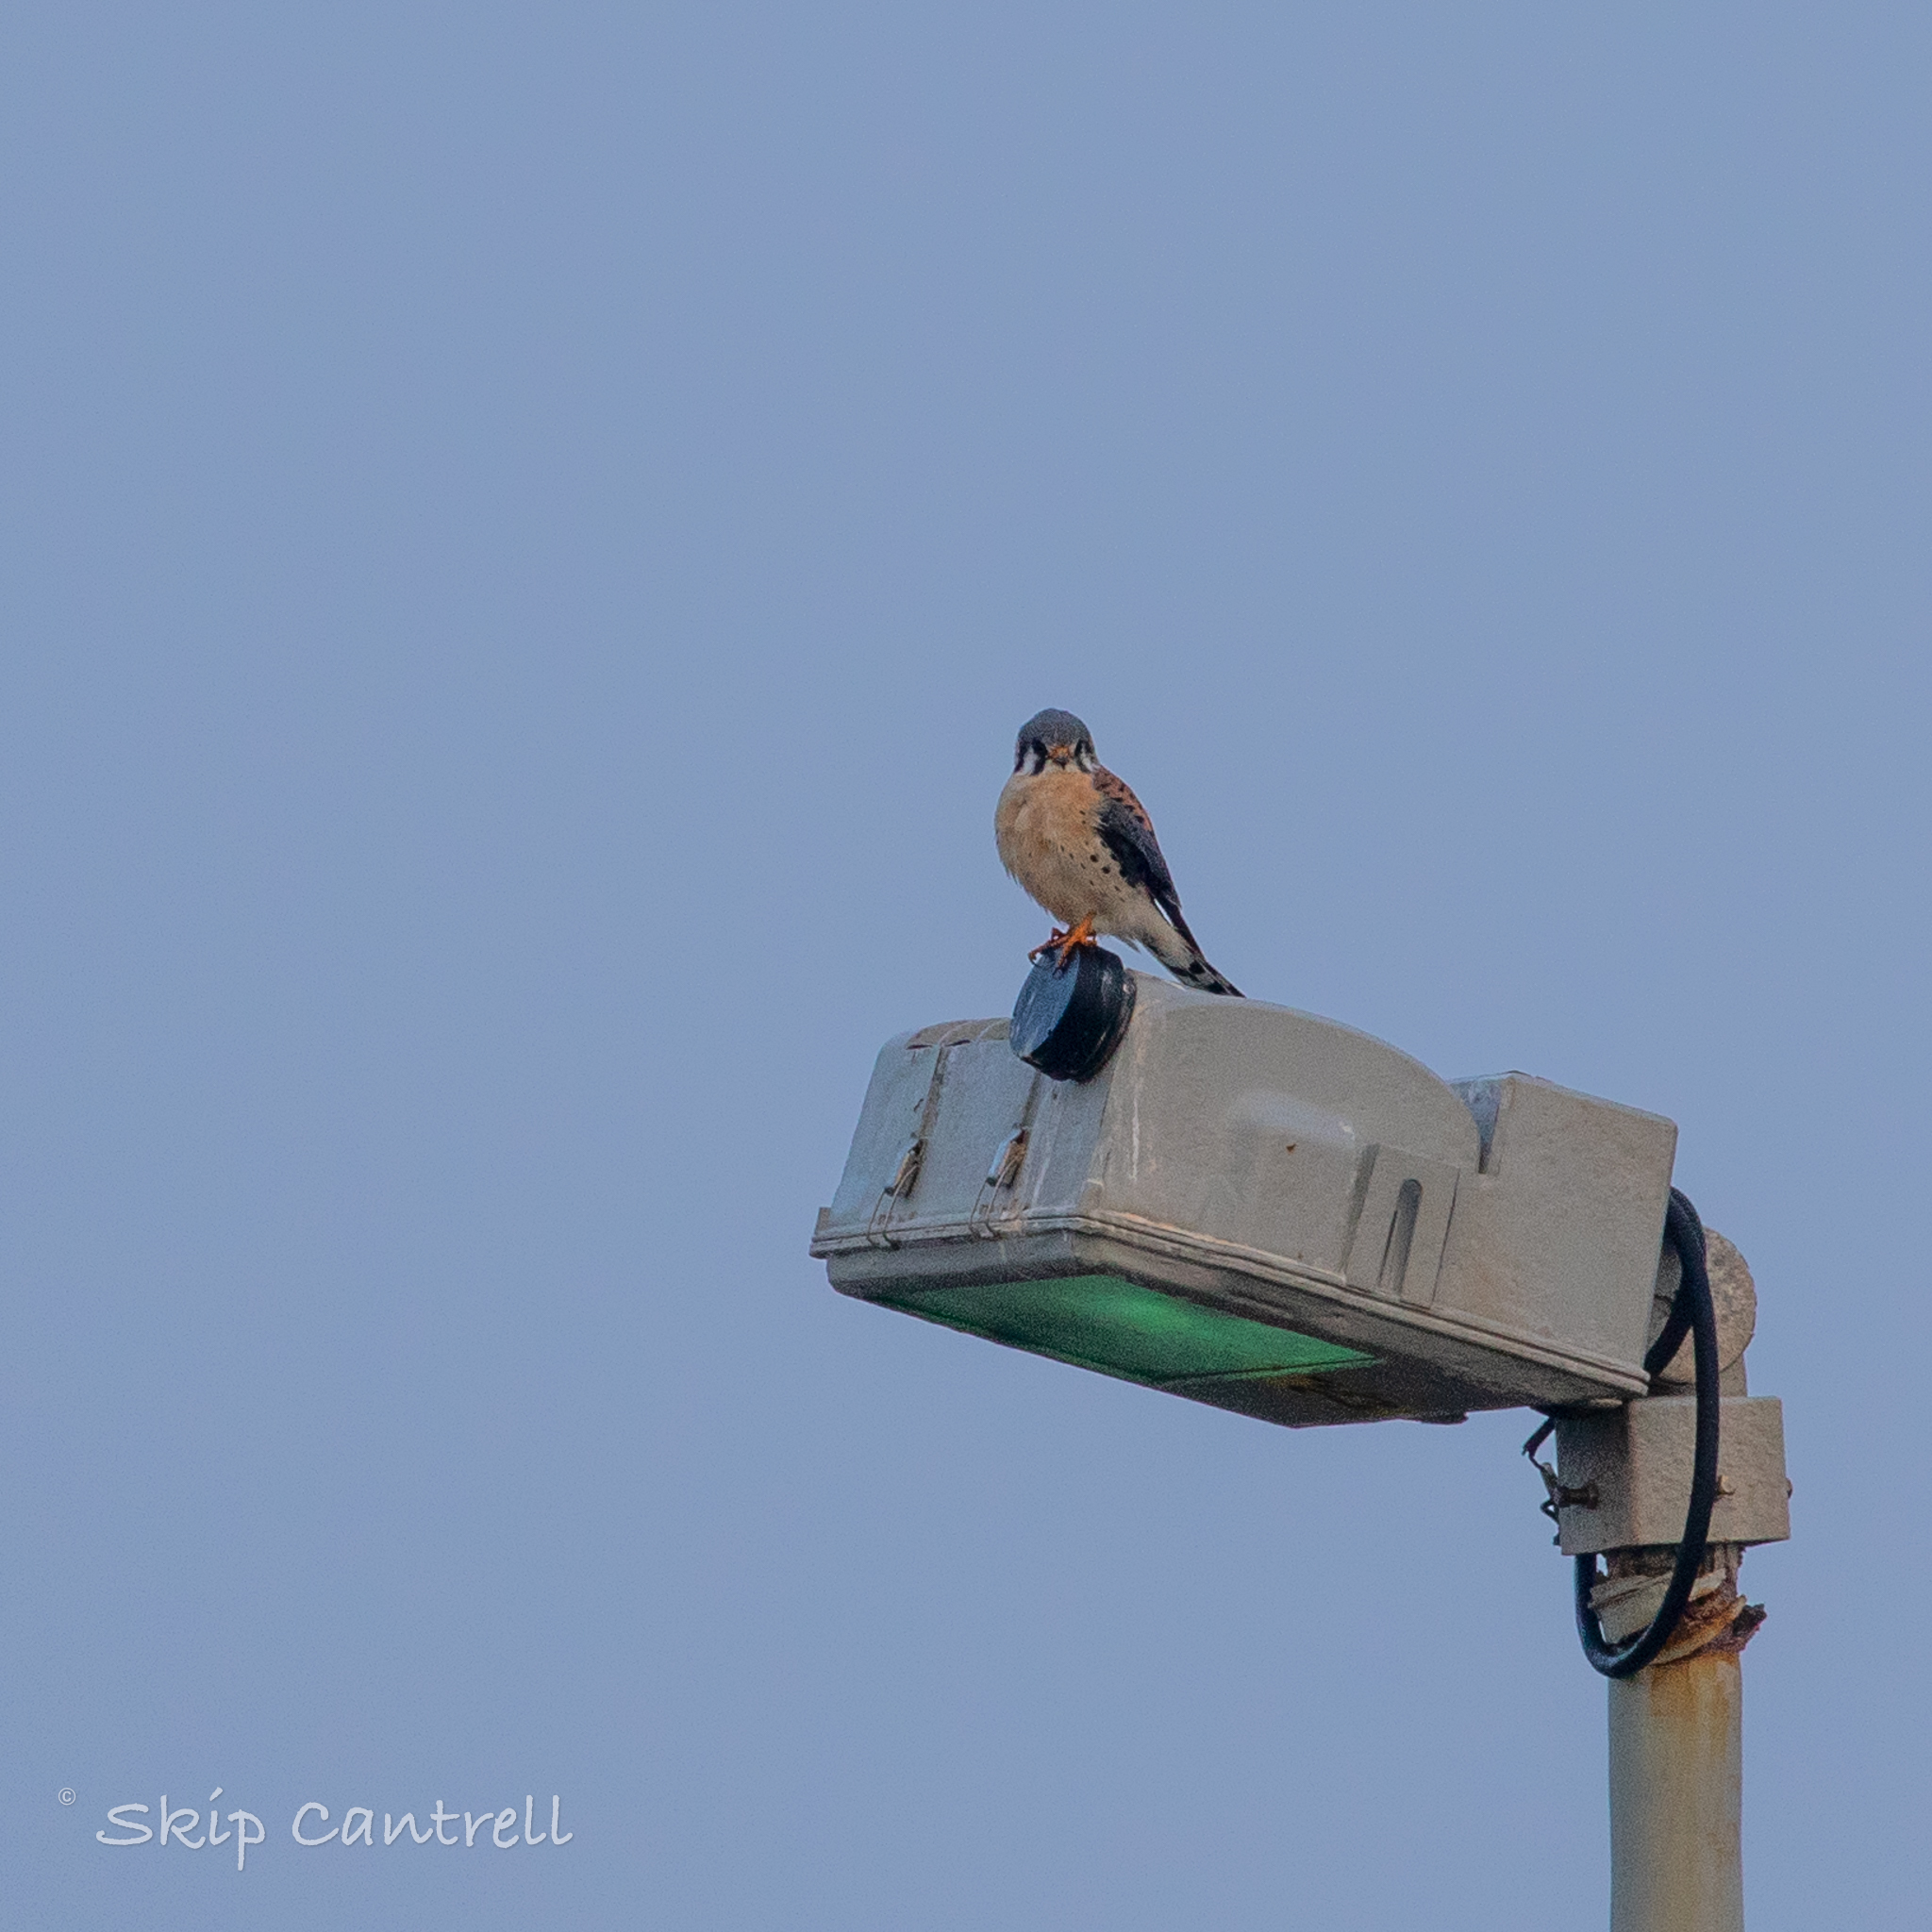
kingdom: Animalia
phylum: Chordata
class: Aves
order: Falconiformes
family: Falconidae
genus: Falco
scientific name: Falco sparverius
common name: American kestrel
